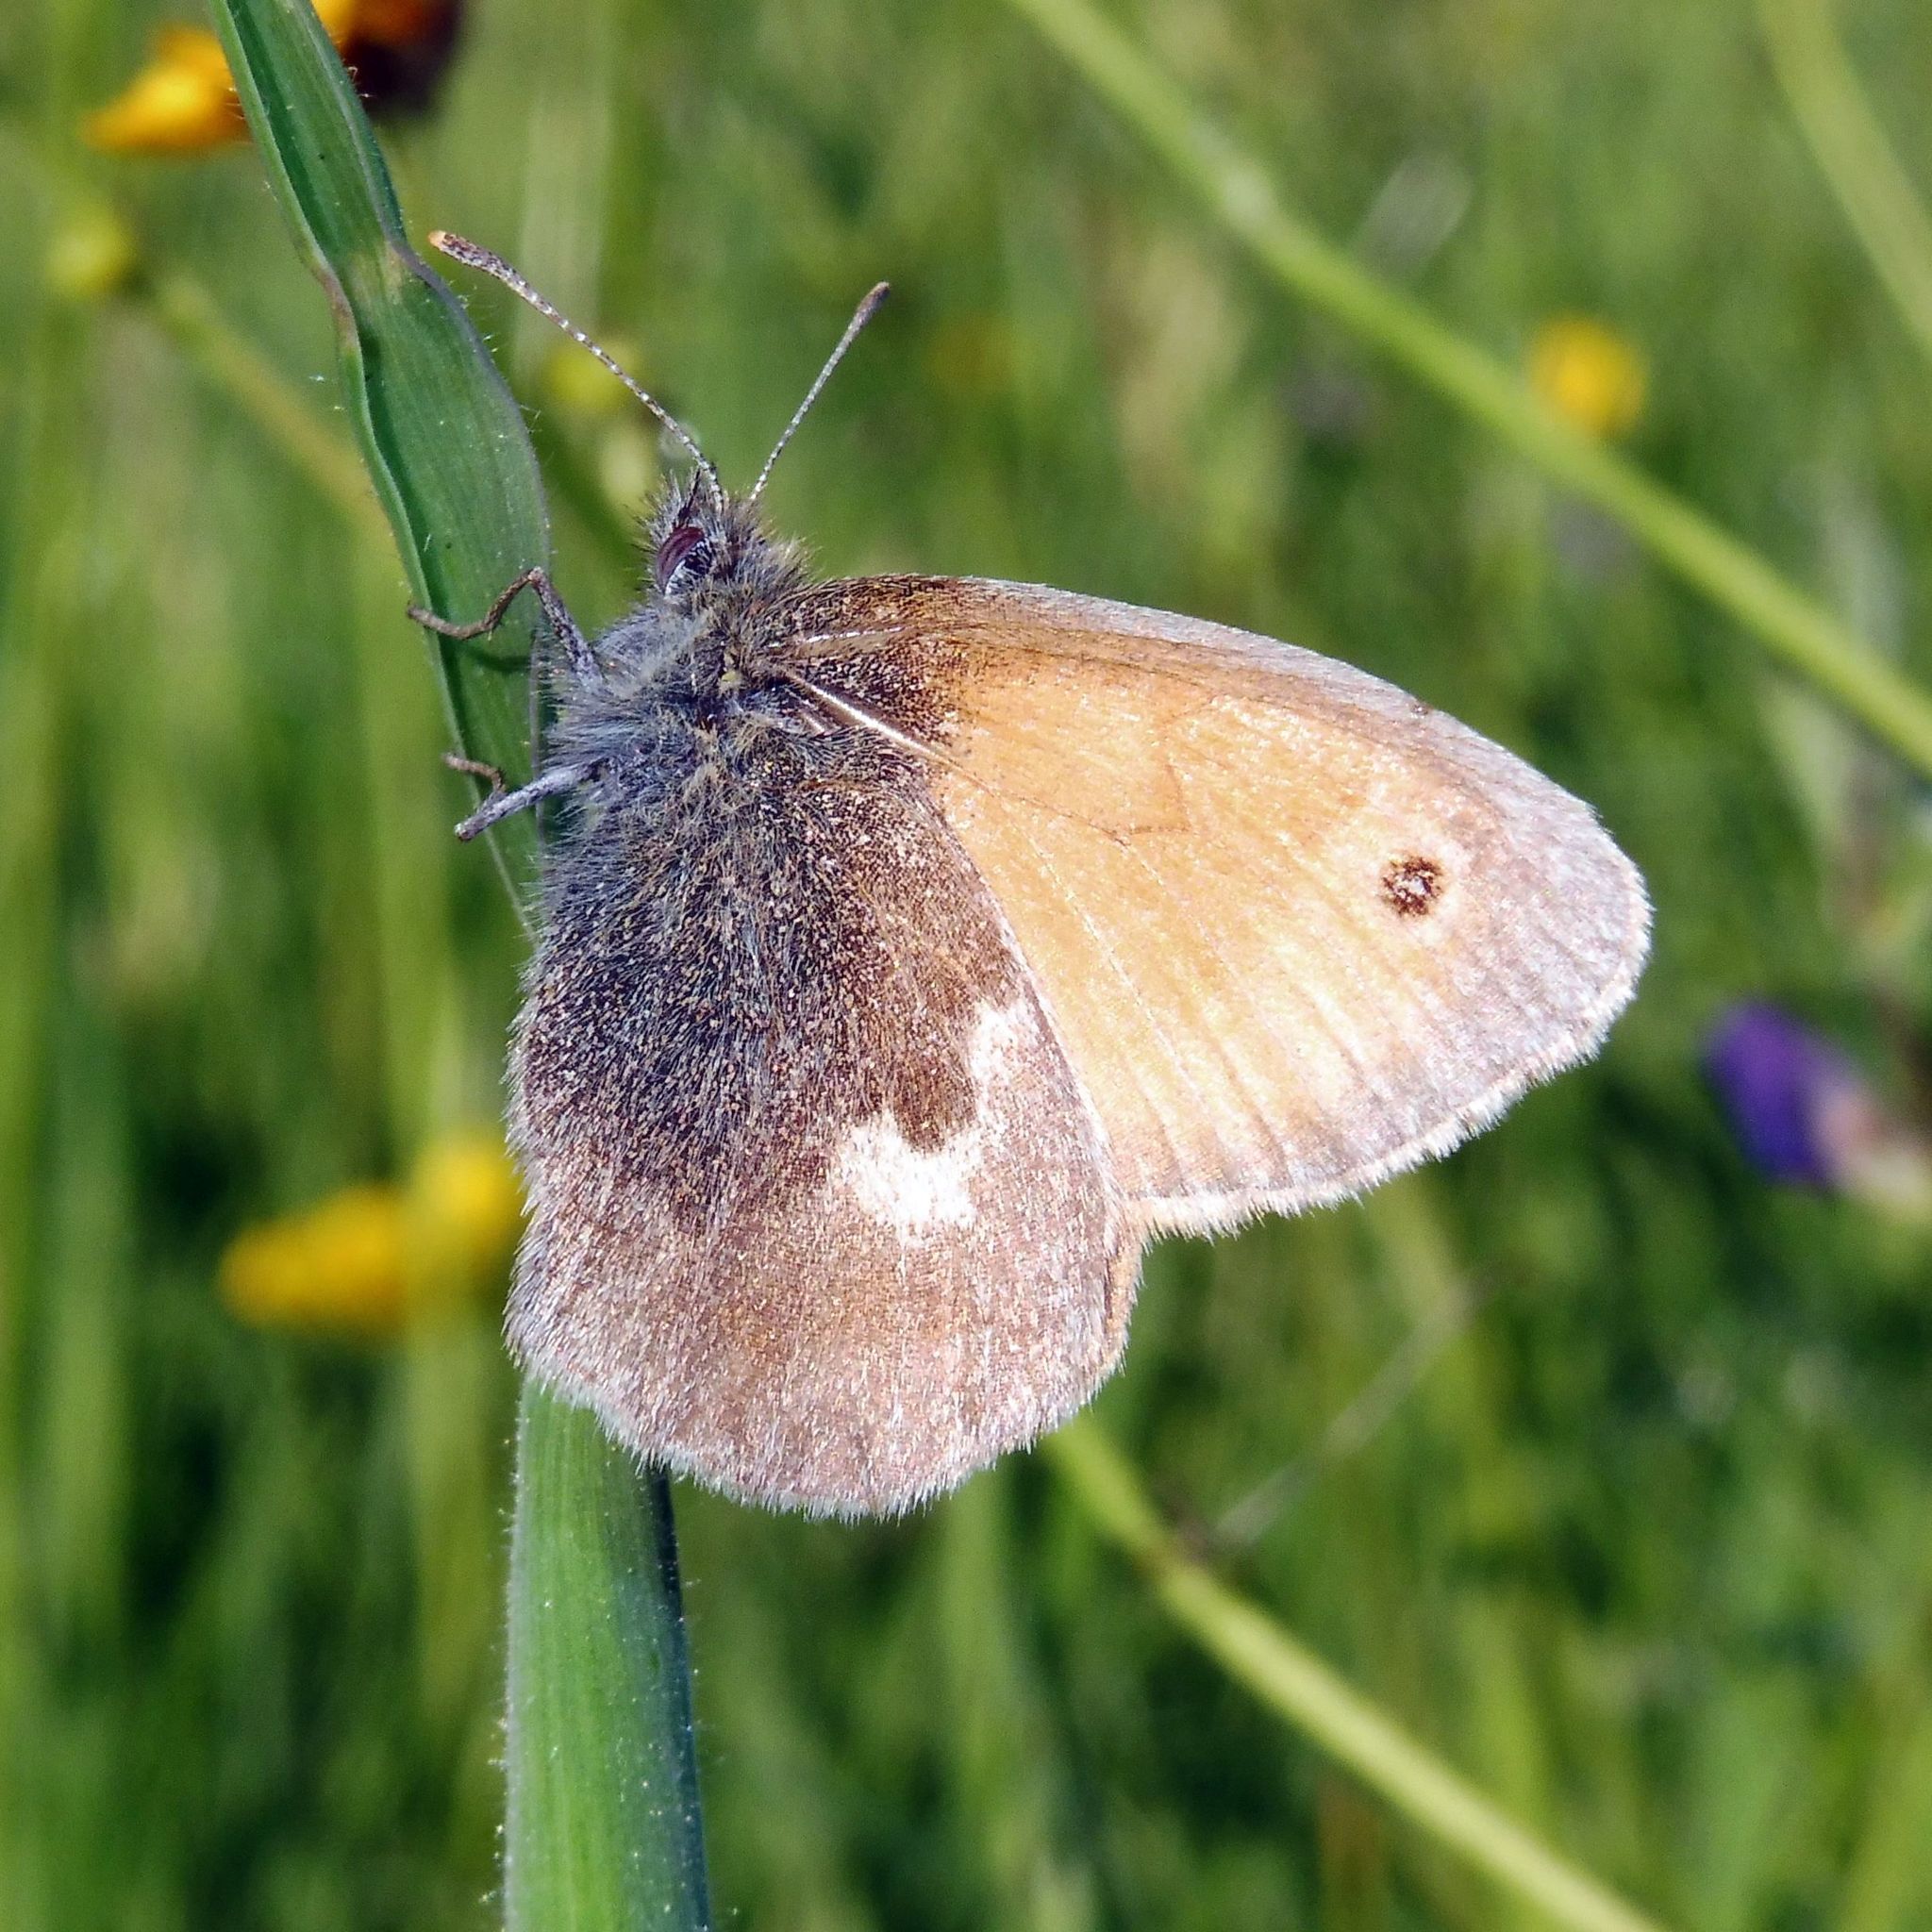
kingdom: Animalia
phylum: Arthropoda
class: Insecta
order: Lepidoptera
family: Nymphalidae
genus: Coenonympha
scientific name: Coenonympha pamphilus
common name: Small heath
